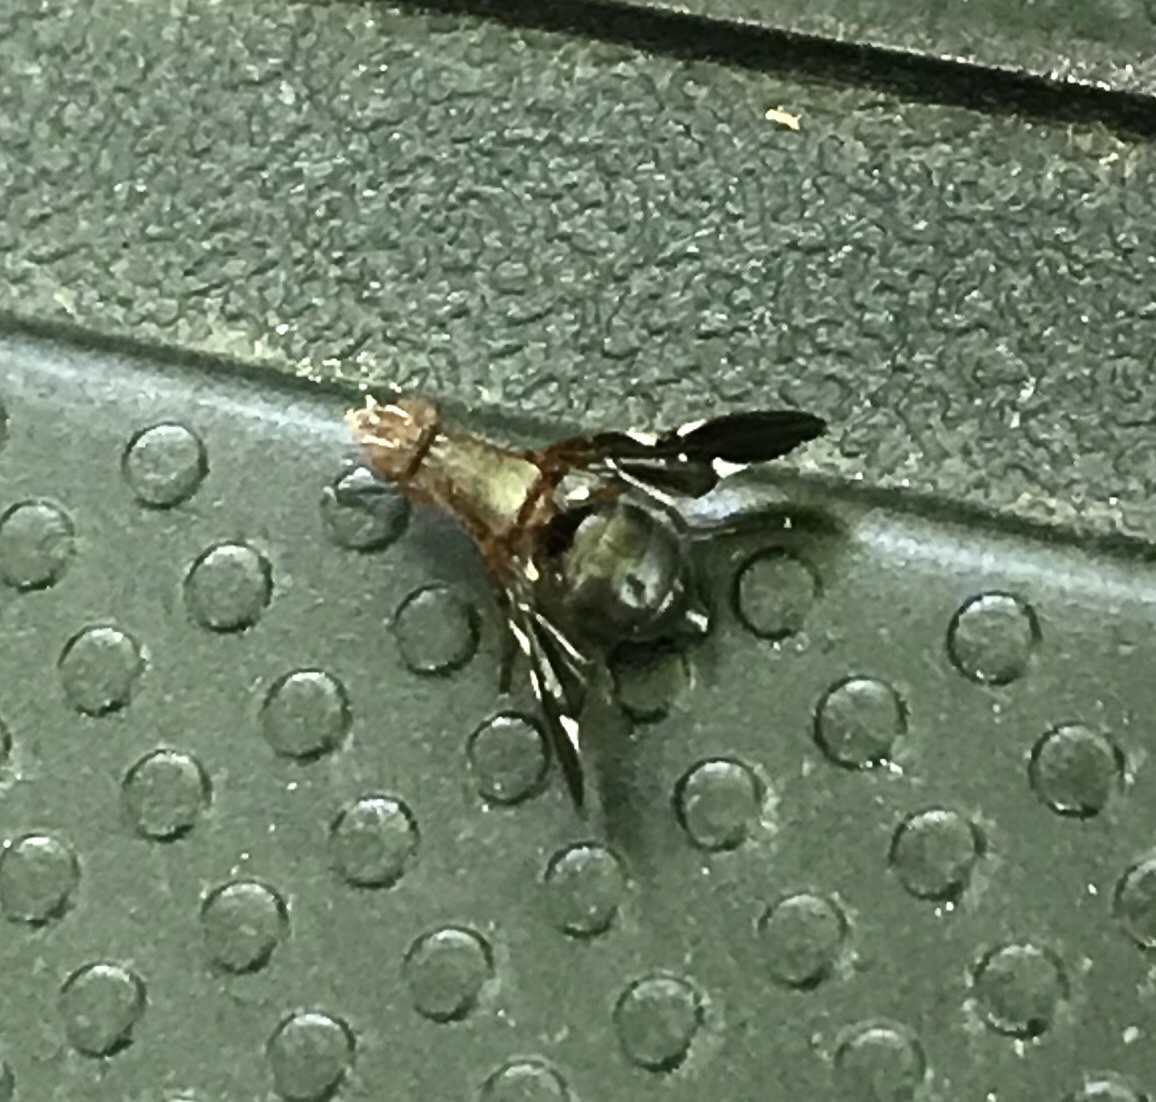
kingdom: Animalia
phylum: Arthropoda
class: Insecta
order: Diptera
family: Ulidiidae
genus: Delphinia
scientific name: Delphinia picta
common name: Common picture-winged fly
